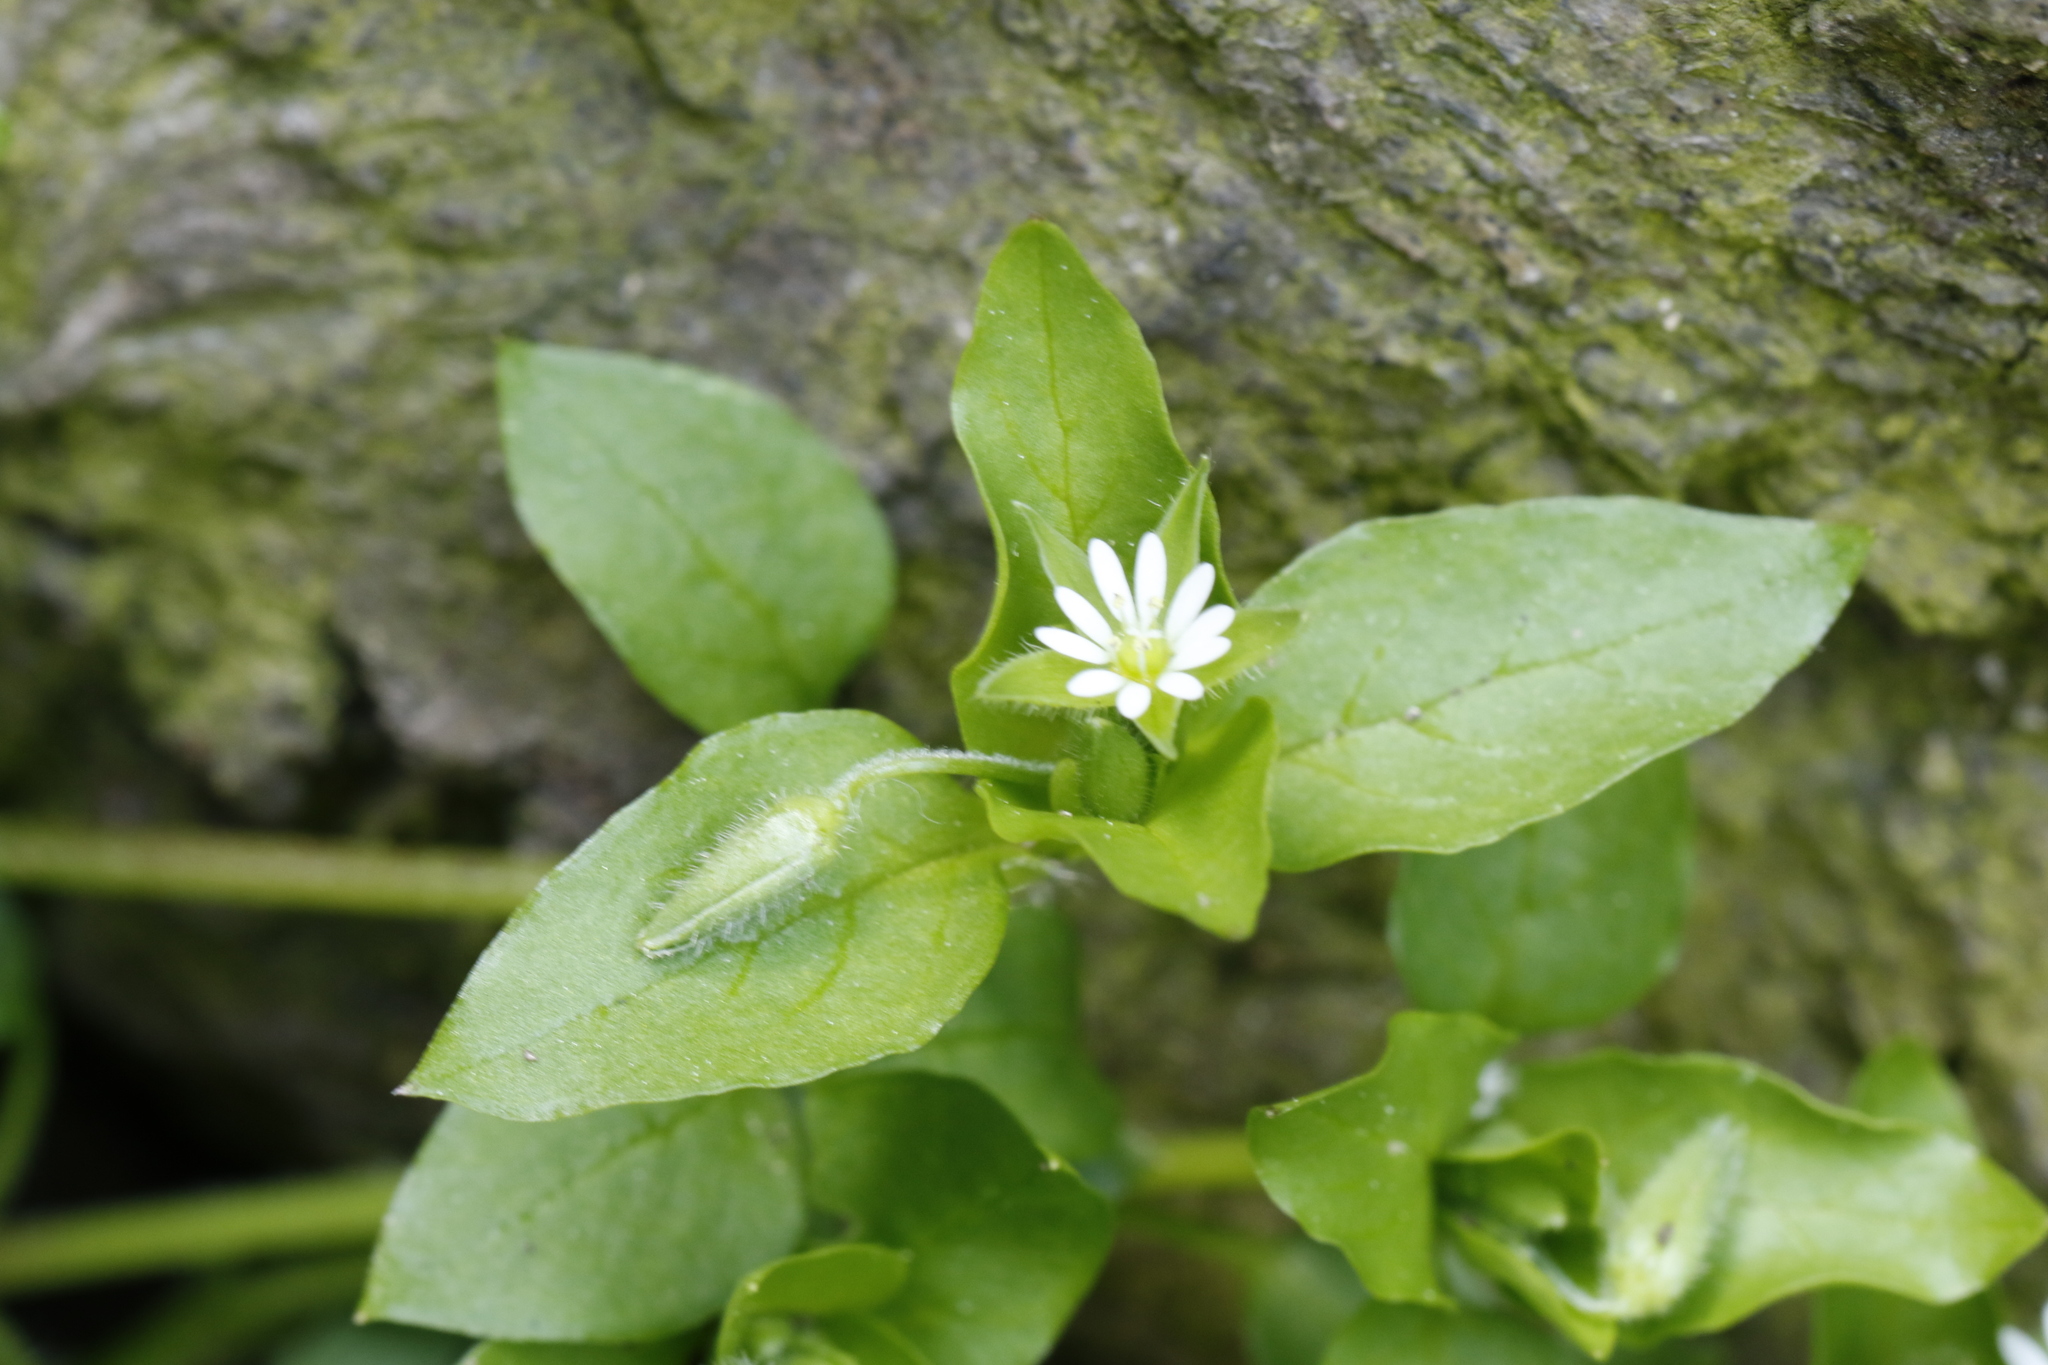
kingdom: Plantae
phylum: Tracheophyta
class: Magnoliopsida
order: Caryophyllales
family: Caryophyllaceae
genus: Stellaria
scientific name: Stellaria media
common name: Common chickweed
